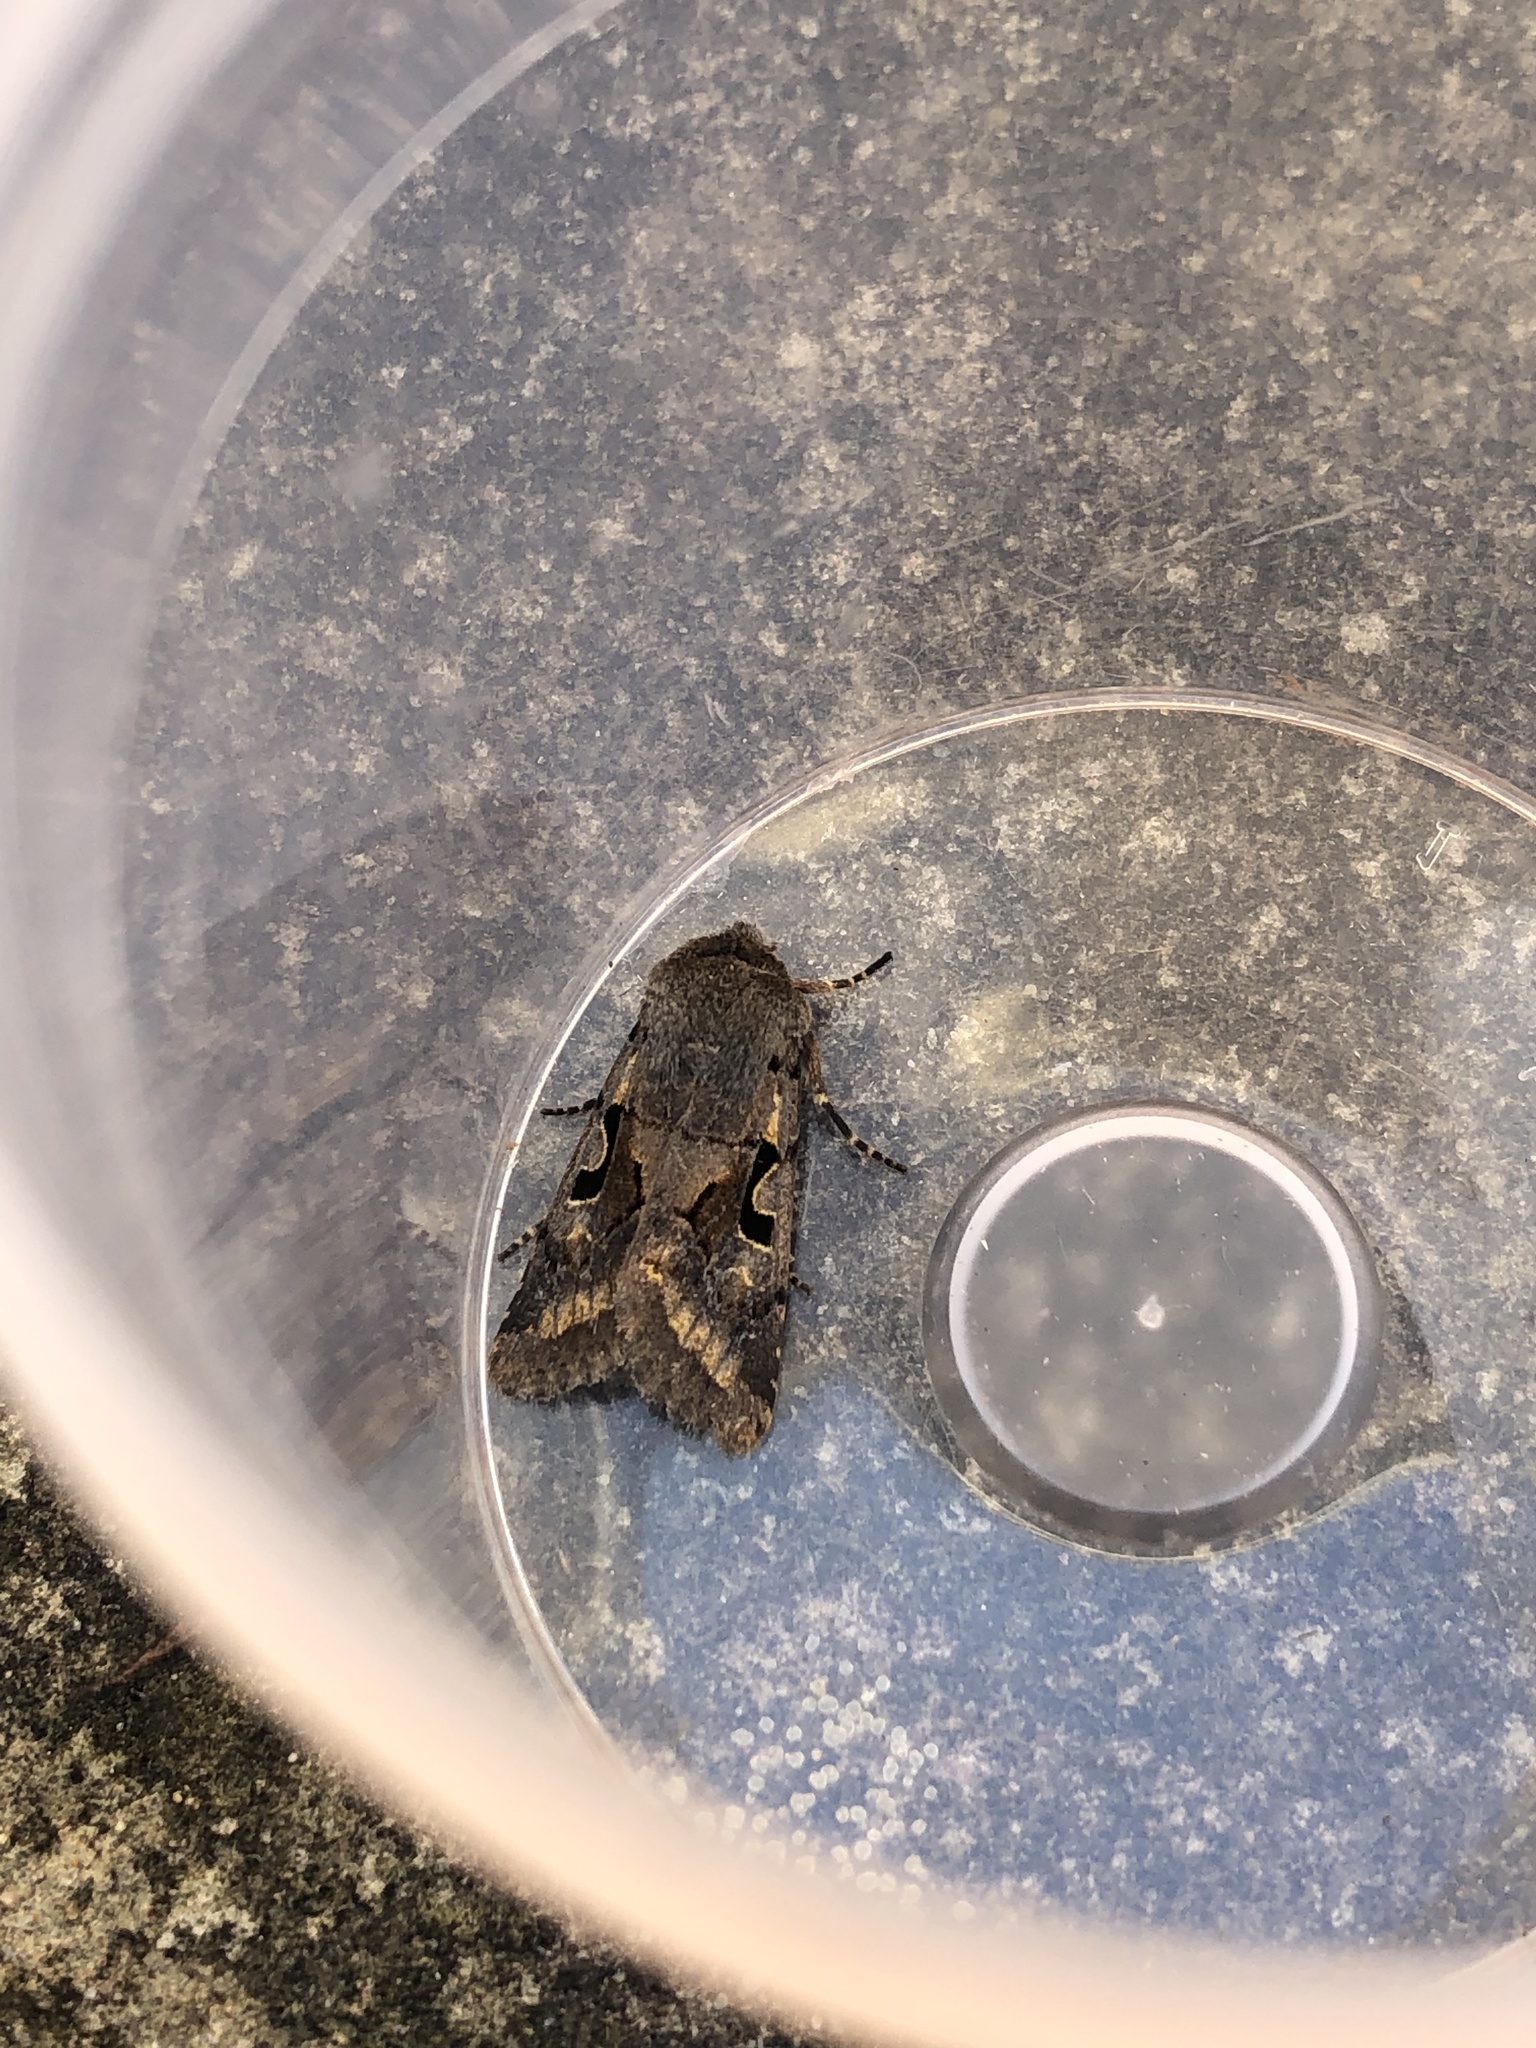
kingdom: Animalia
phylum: Arthropoda
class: Insecta
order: Lepidoptera
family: Noctuidae
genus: Orthosia
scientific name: Orthosia gothica
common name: Hebrew character
